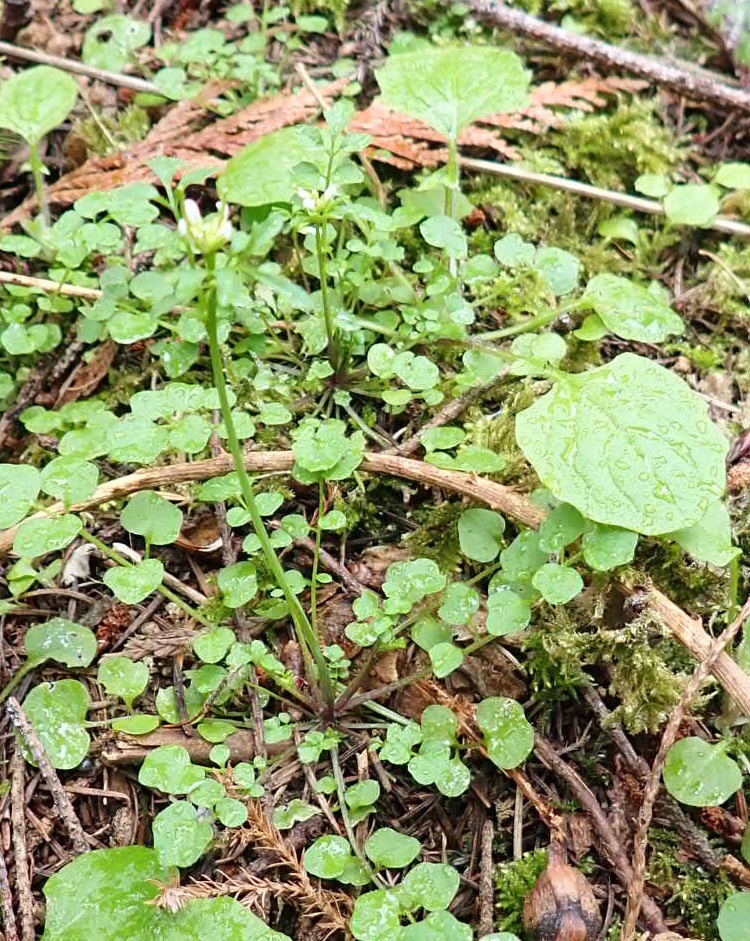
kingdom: Plantae
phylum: Tracheophyta
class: Magnoliopsida
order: Brassicales
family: Brassicaceae
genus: Cardamine
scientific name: Cardamine hirsuta
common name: Hairy bittercress
